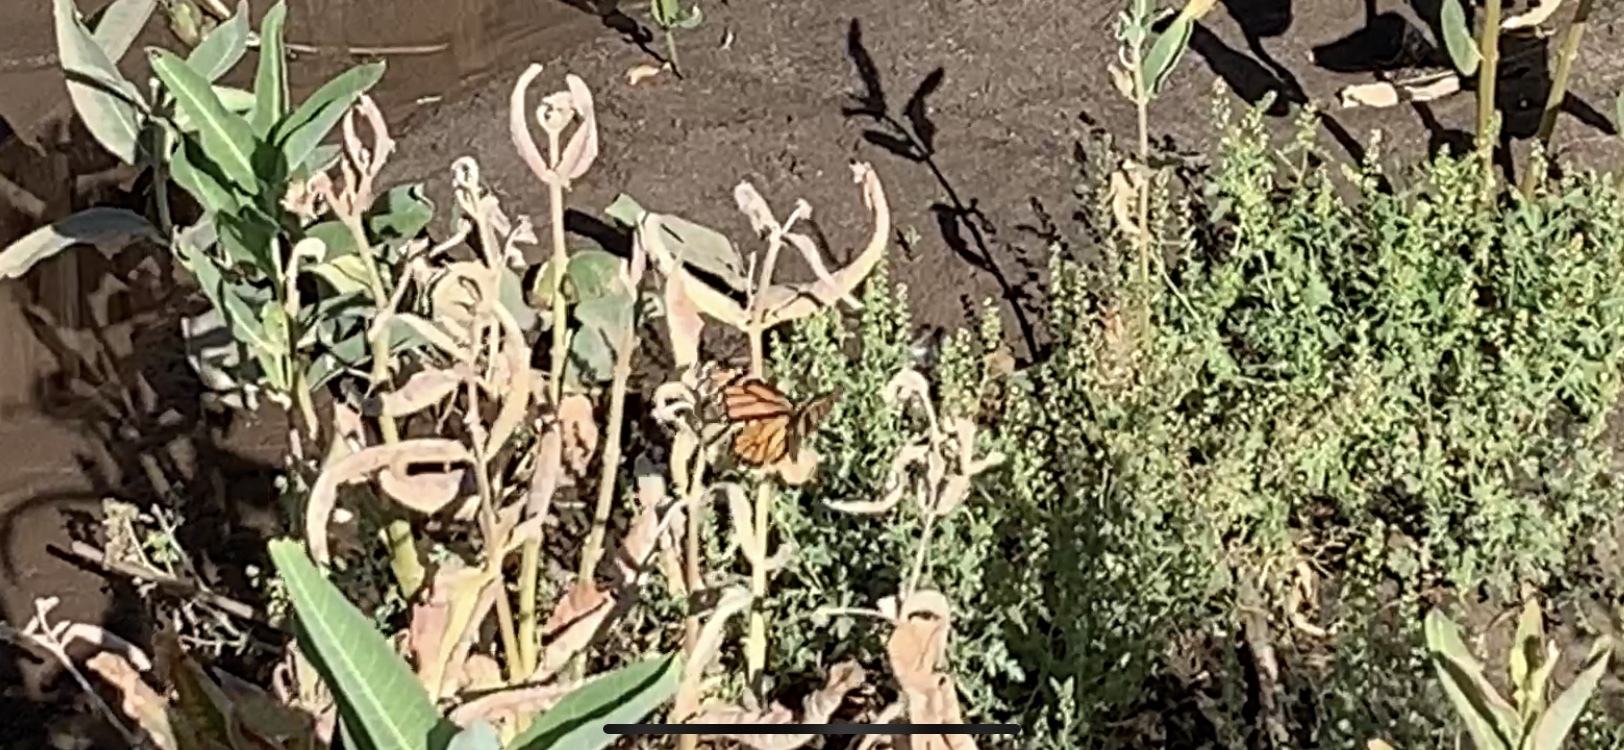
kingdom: Animalia
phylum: Arthropoda
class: Insecta
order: Lepidoptera
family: Nymphalidae
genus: Danaus
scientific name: Danaus plexippus
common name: Monarch
